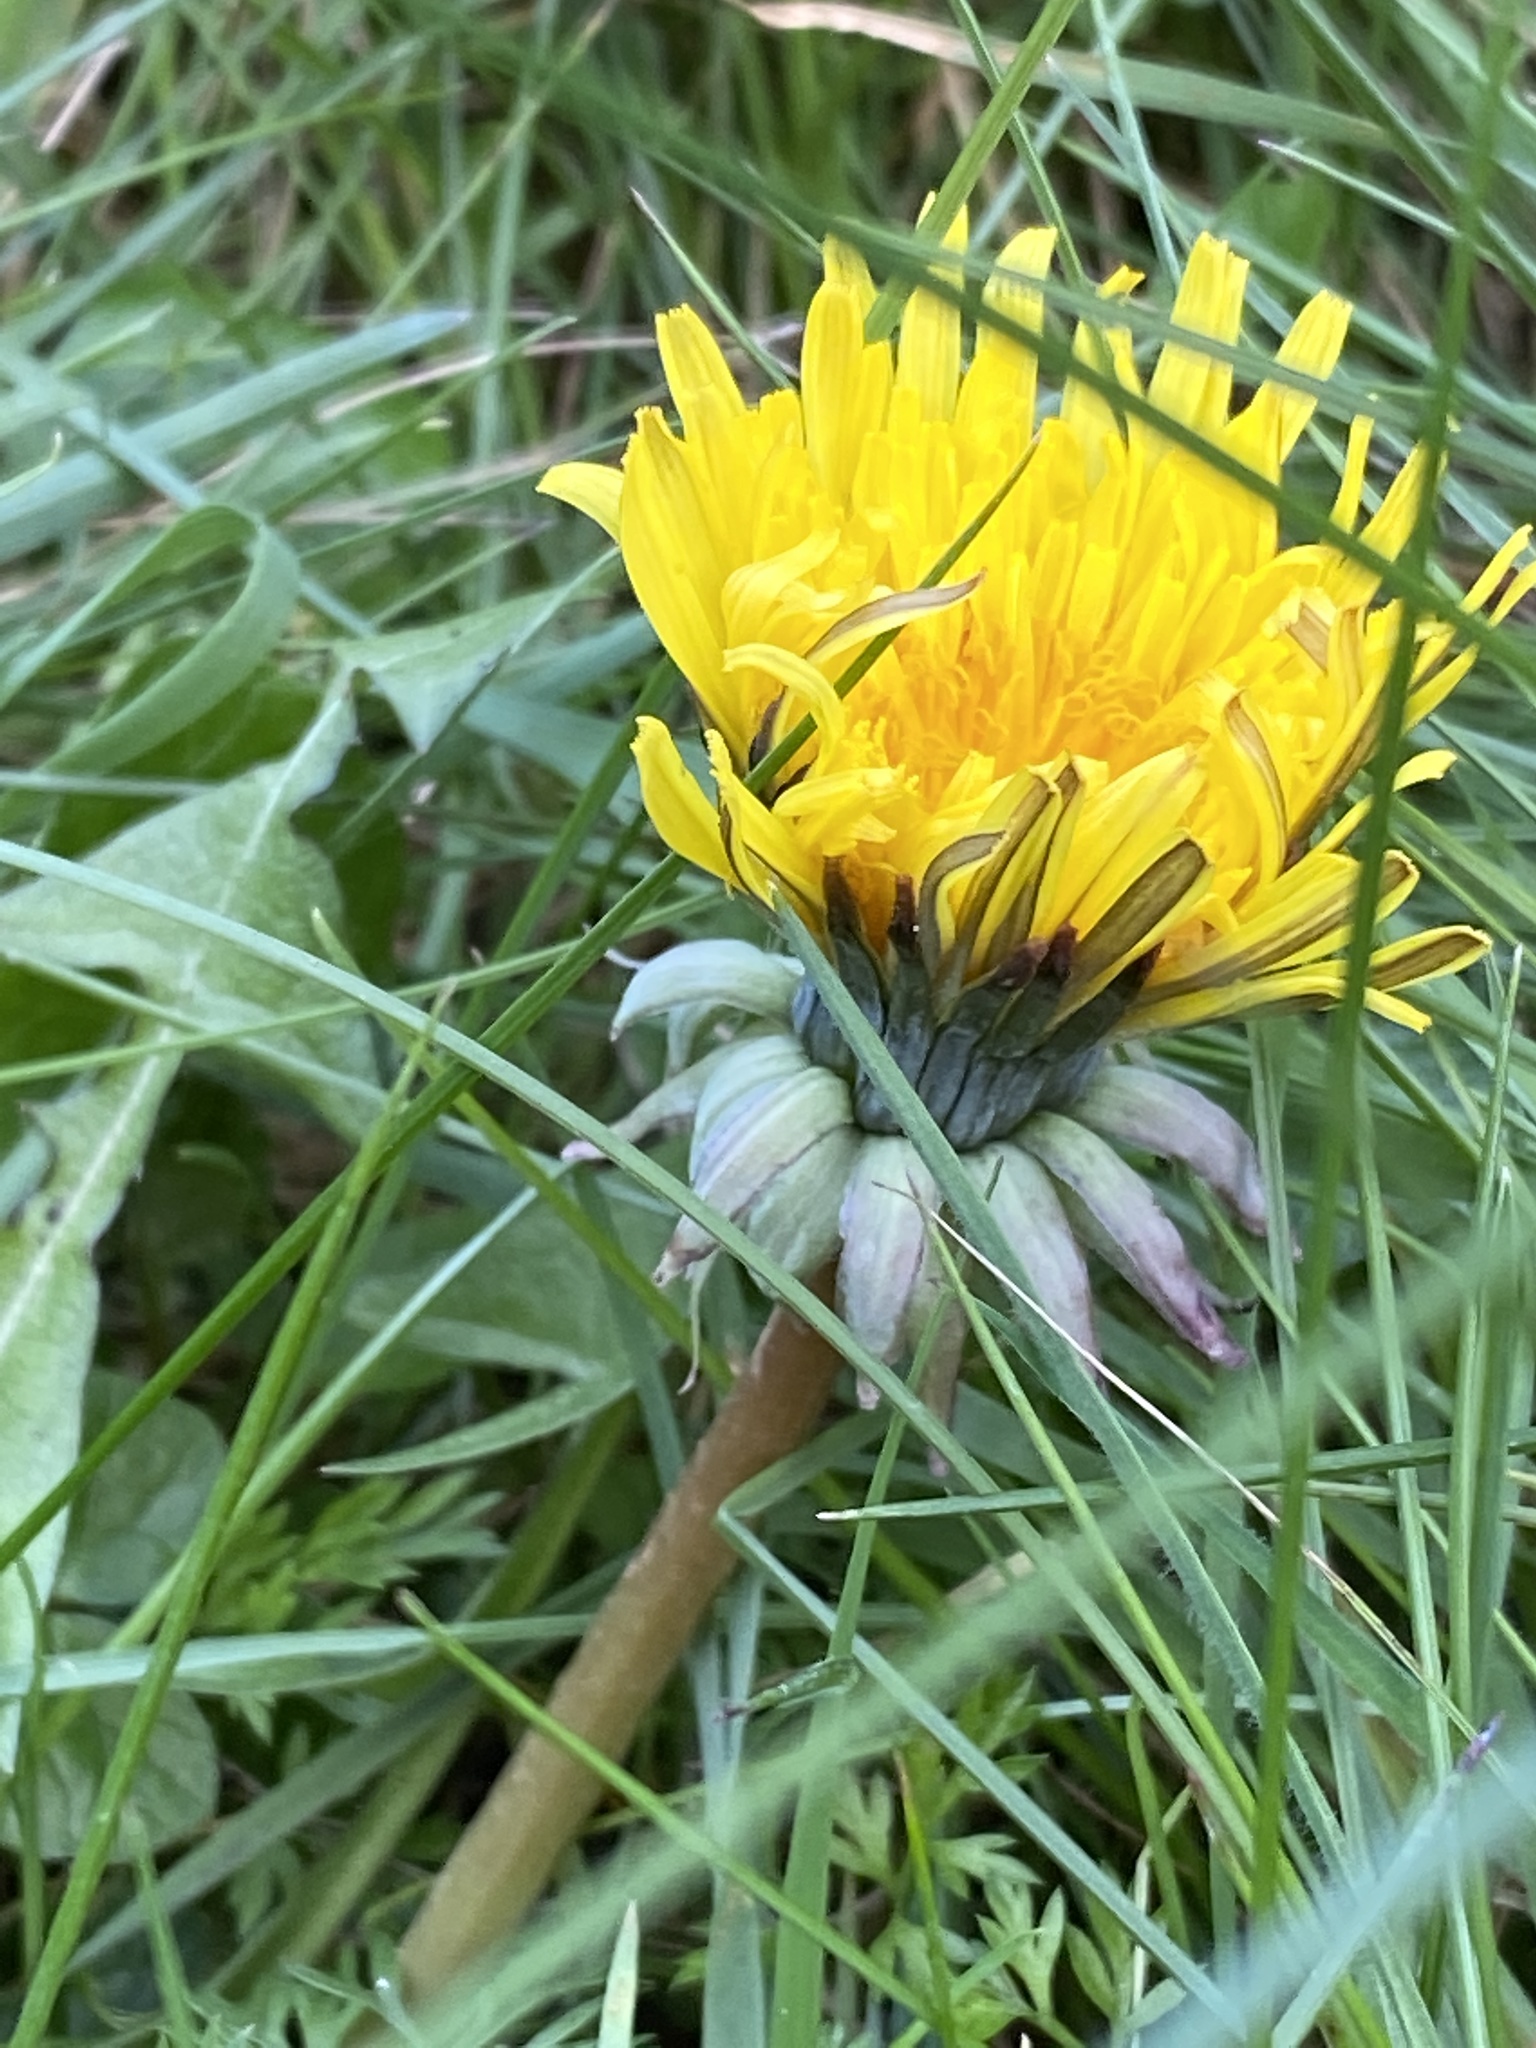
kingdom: Plantae
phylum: Tracheophyta
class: Magnoliopsida
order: Asterales
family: Asteraceae
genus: Taraxacum
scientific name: Taraxacum officinale
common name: Common dandelion
